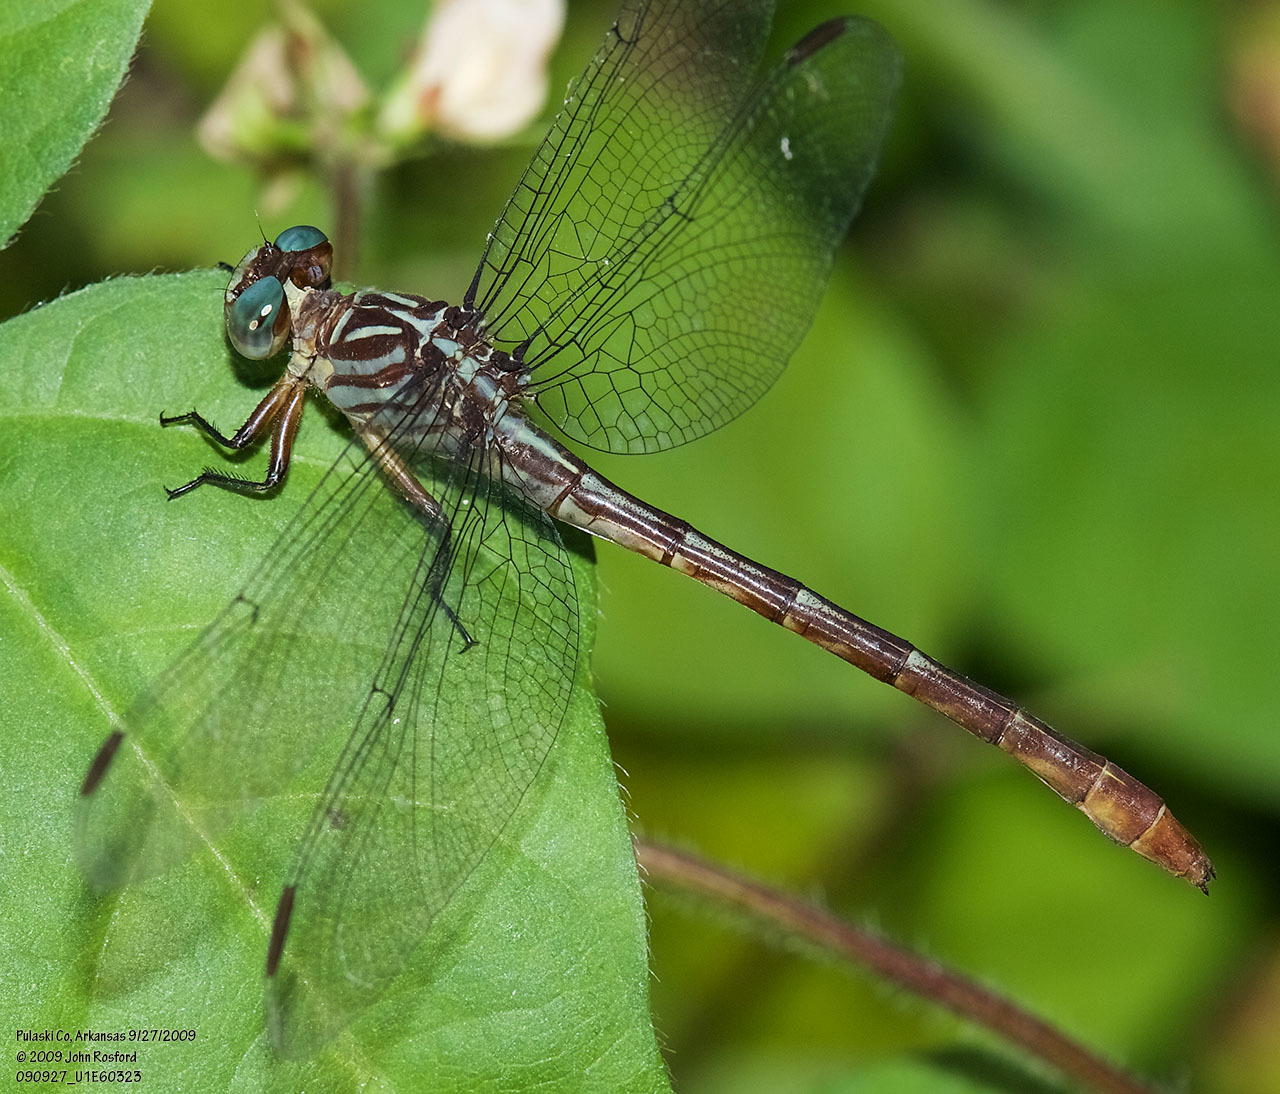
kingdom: Animalia
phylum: Arthropoda
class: Insecta
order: Odonata
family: Gomphidae
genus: Stylurus
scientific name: Stylurus plagiatus
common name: Russet-tipped clubtail
